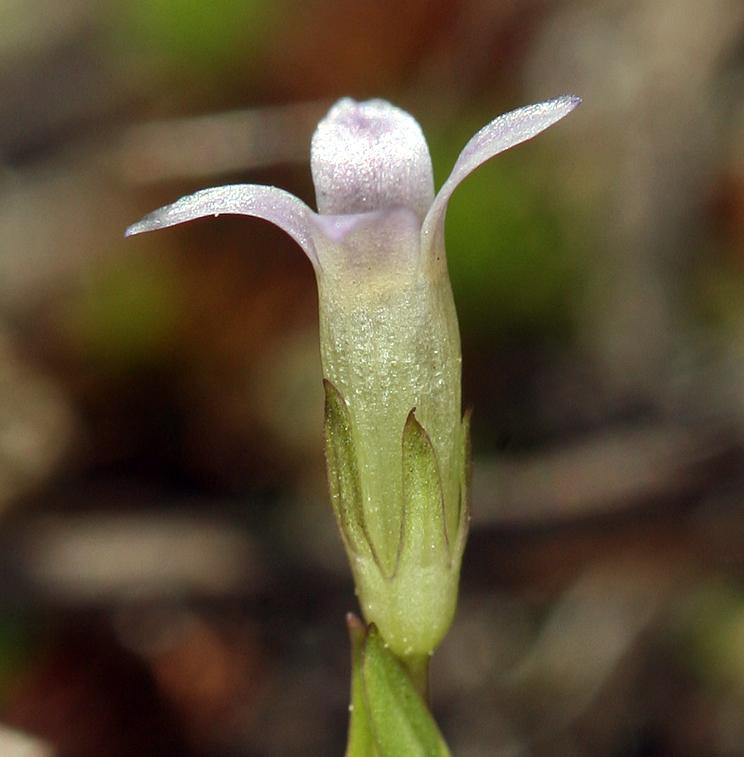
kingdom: Plantae
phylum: Tracheophyta
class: Magnoliopsida
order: Gentianales
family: Gentianaceae
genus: Gentianella
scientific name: Gentianella amarella
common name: Autumn gentian
